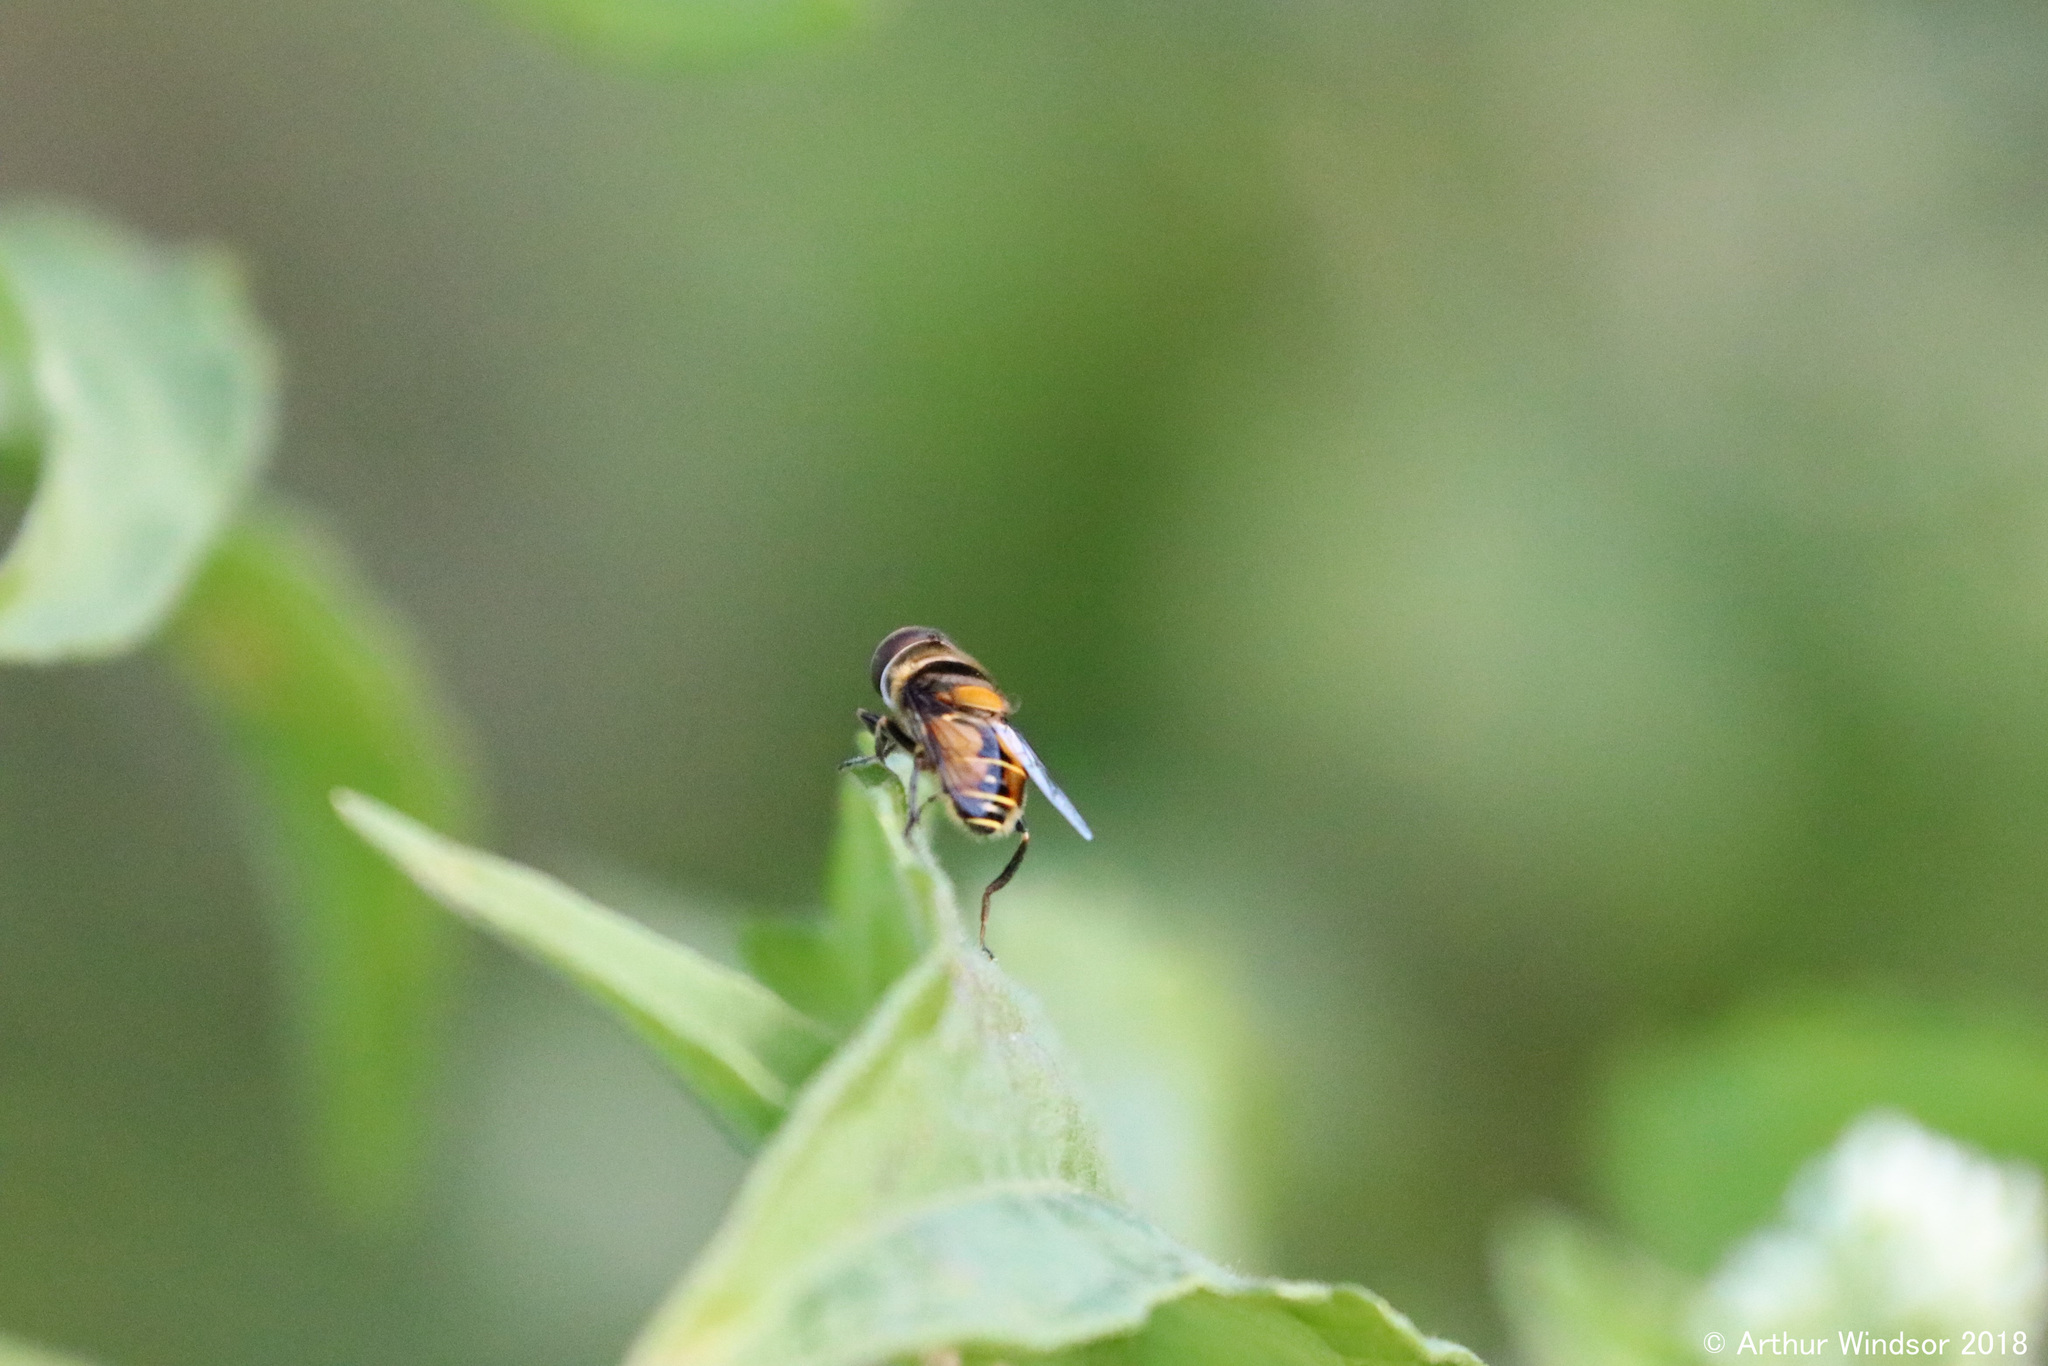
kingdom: Animalia
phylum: Arthropoda
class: Insecta
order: Diptera
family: Syrphidae
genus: Palpada
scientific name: Palpada agrorum
